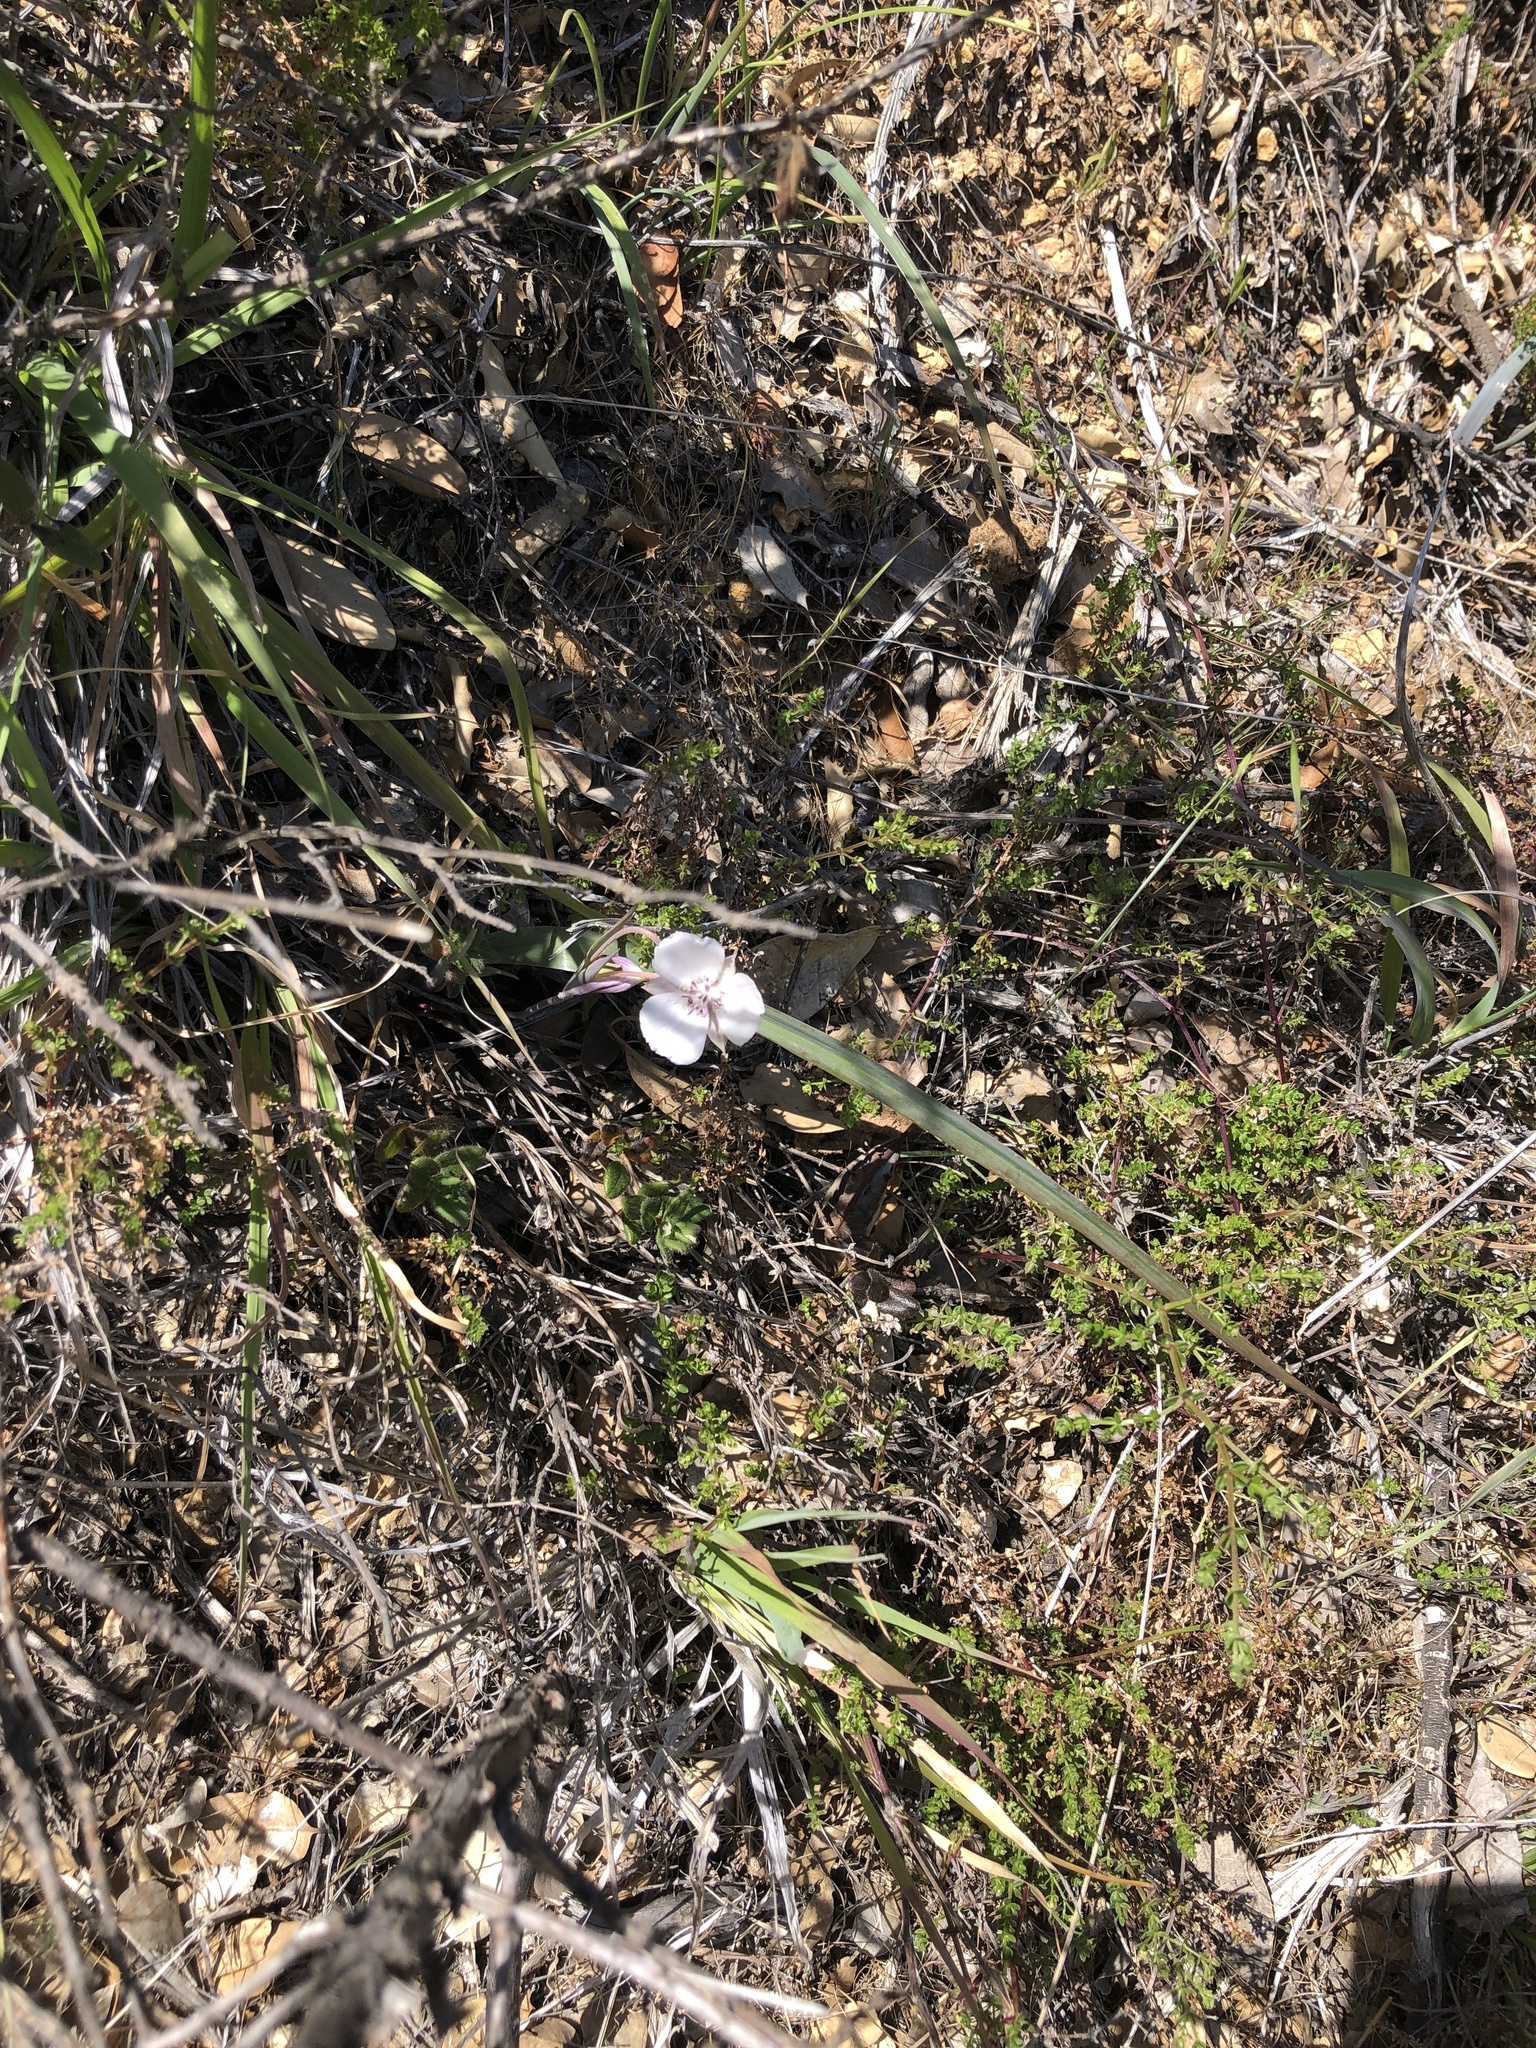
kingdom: Plantae
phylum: Tracheophyta
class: Liliopsida
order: Liliales
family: Liliaceae
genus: Calochortus
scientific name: Calochortus umbellatus
